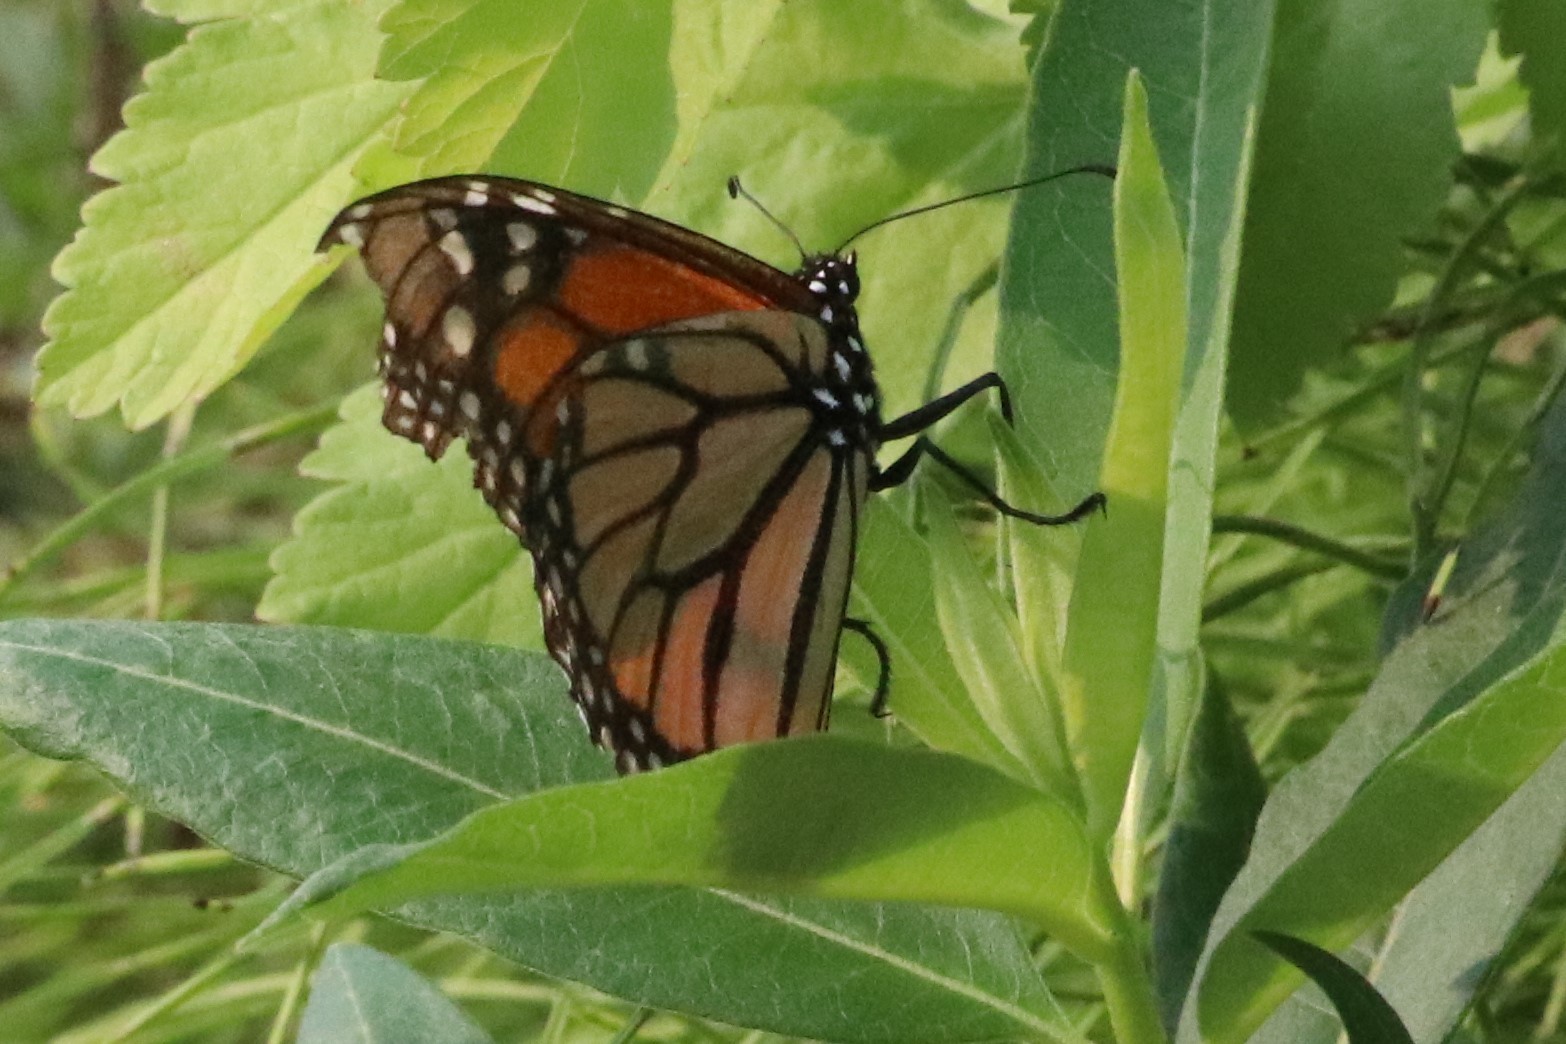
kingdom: Animalia
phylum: Arthropoda
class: Insecta
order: Lepidoptera
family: Nymphalidae
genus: Danaus
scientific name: Danaus plexippus
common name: Monarch
